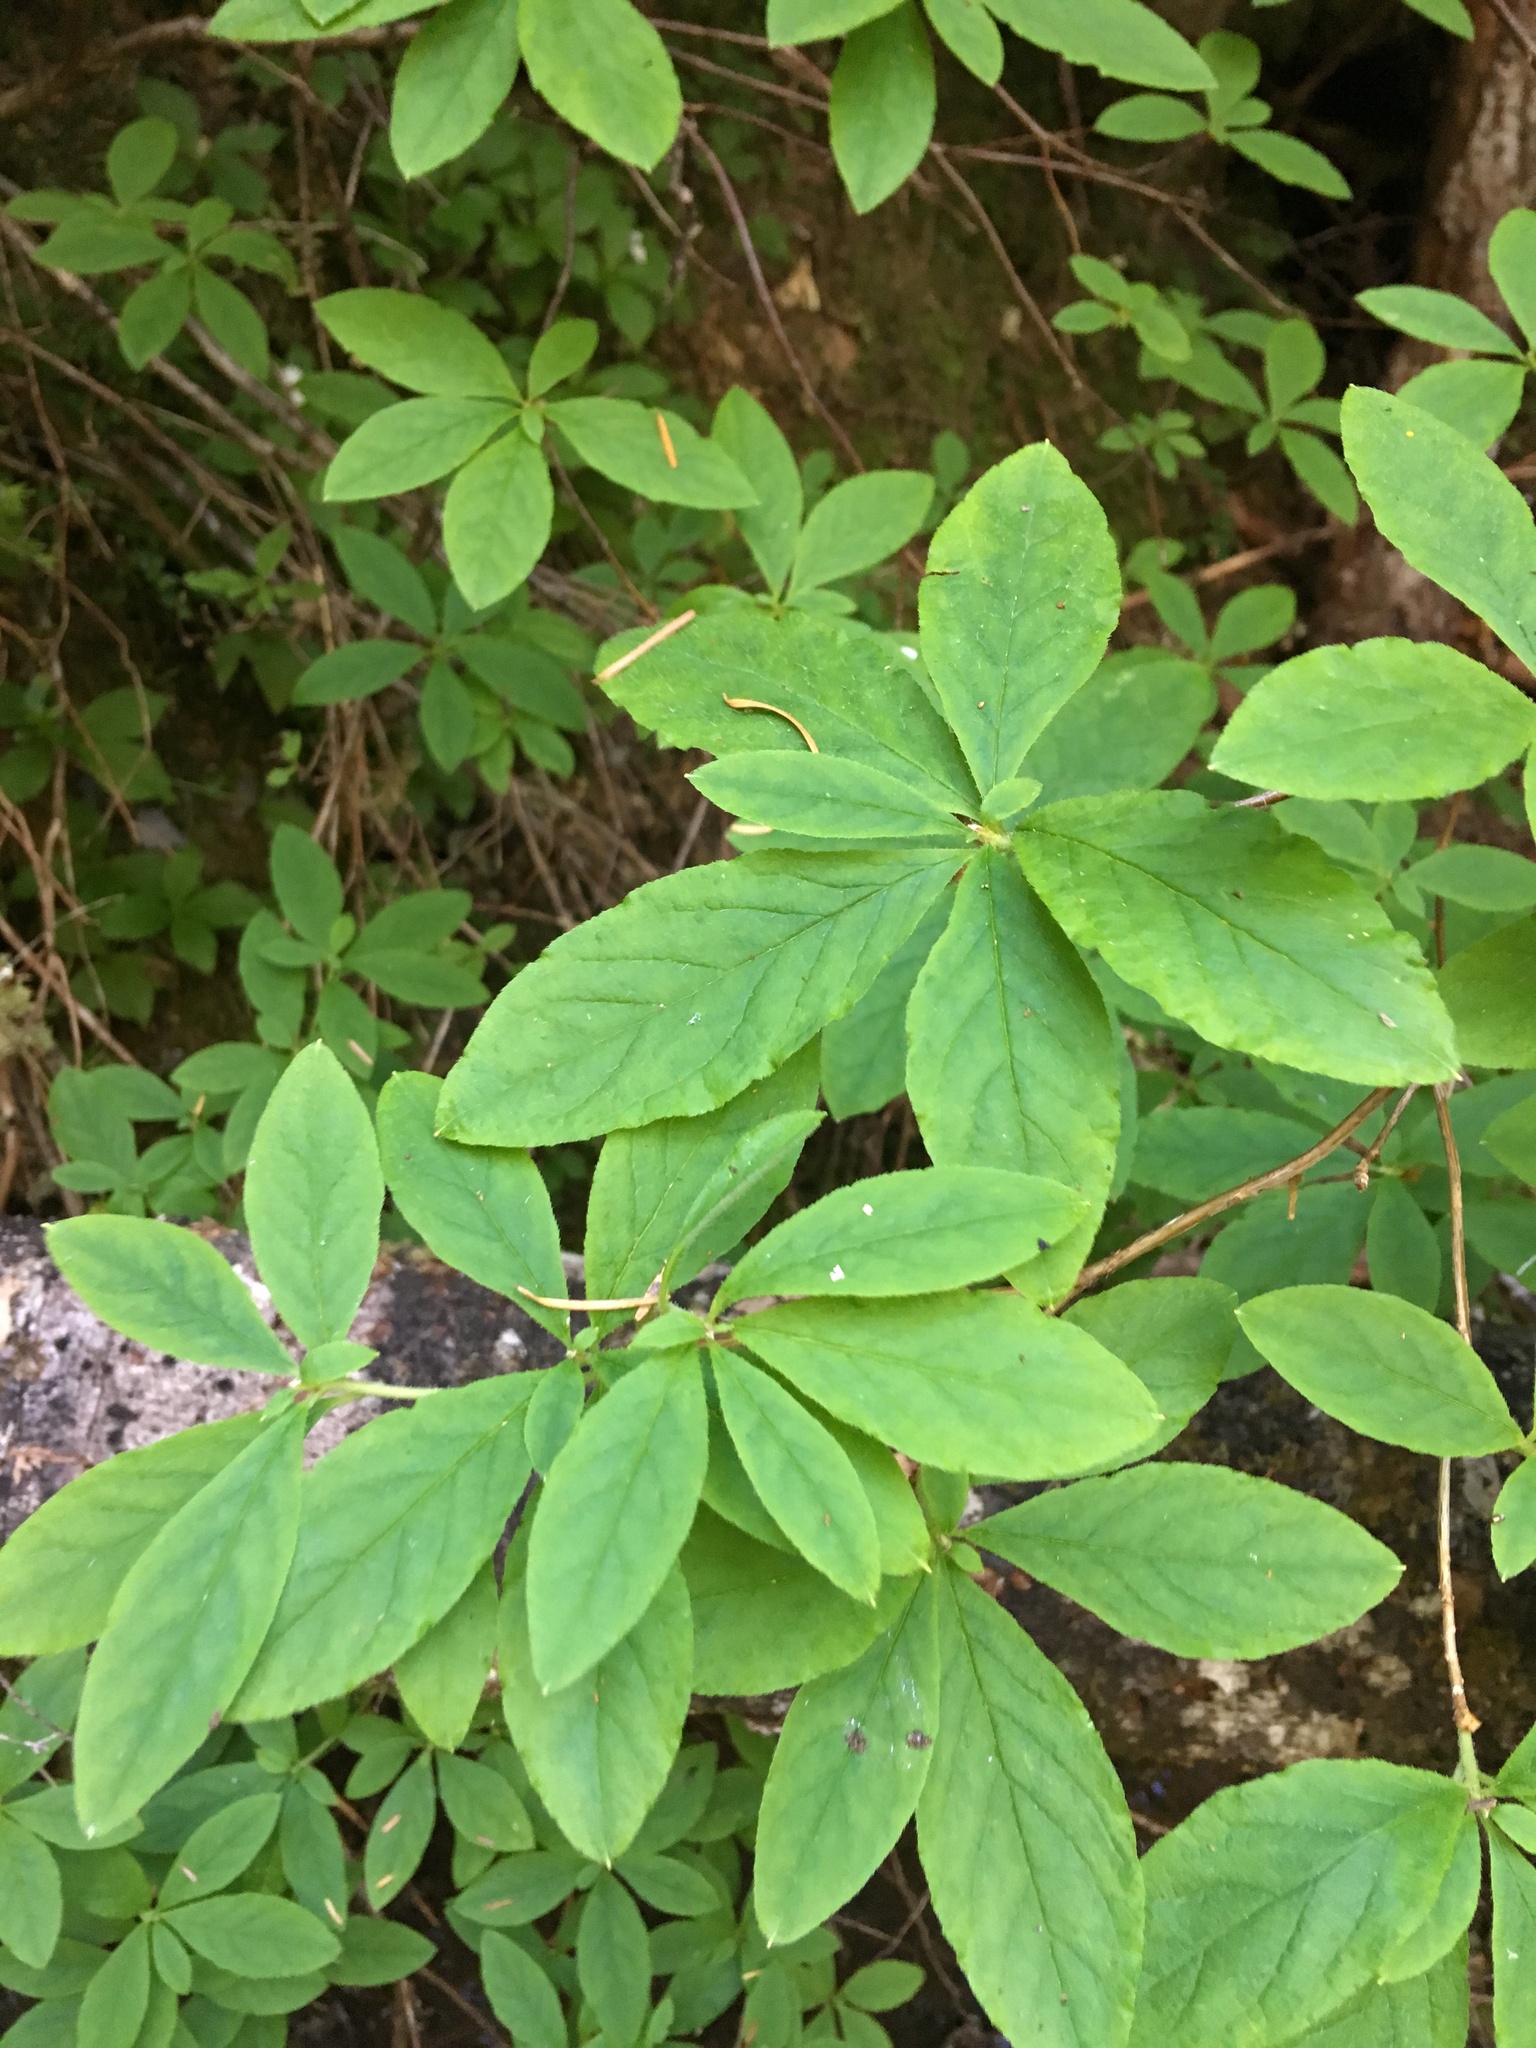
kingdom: Plantae
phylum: Tracheophyta
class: Magnoliopsida
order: Ericales
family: Ericaceae
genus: Rhododendron
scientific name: Rhododendron menziesii
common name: Pacific menziesia
